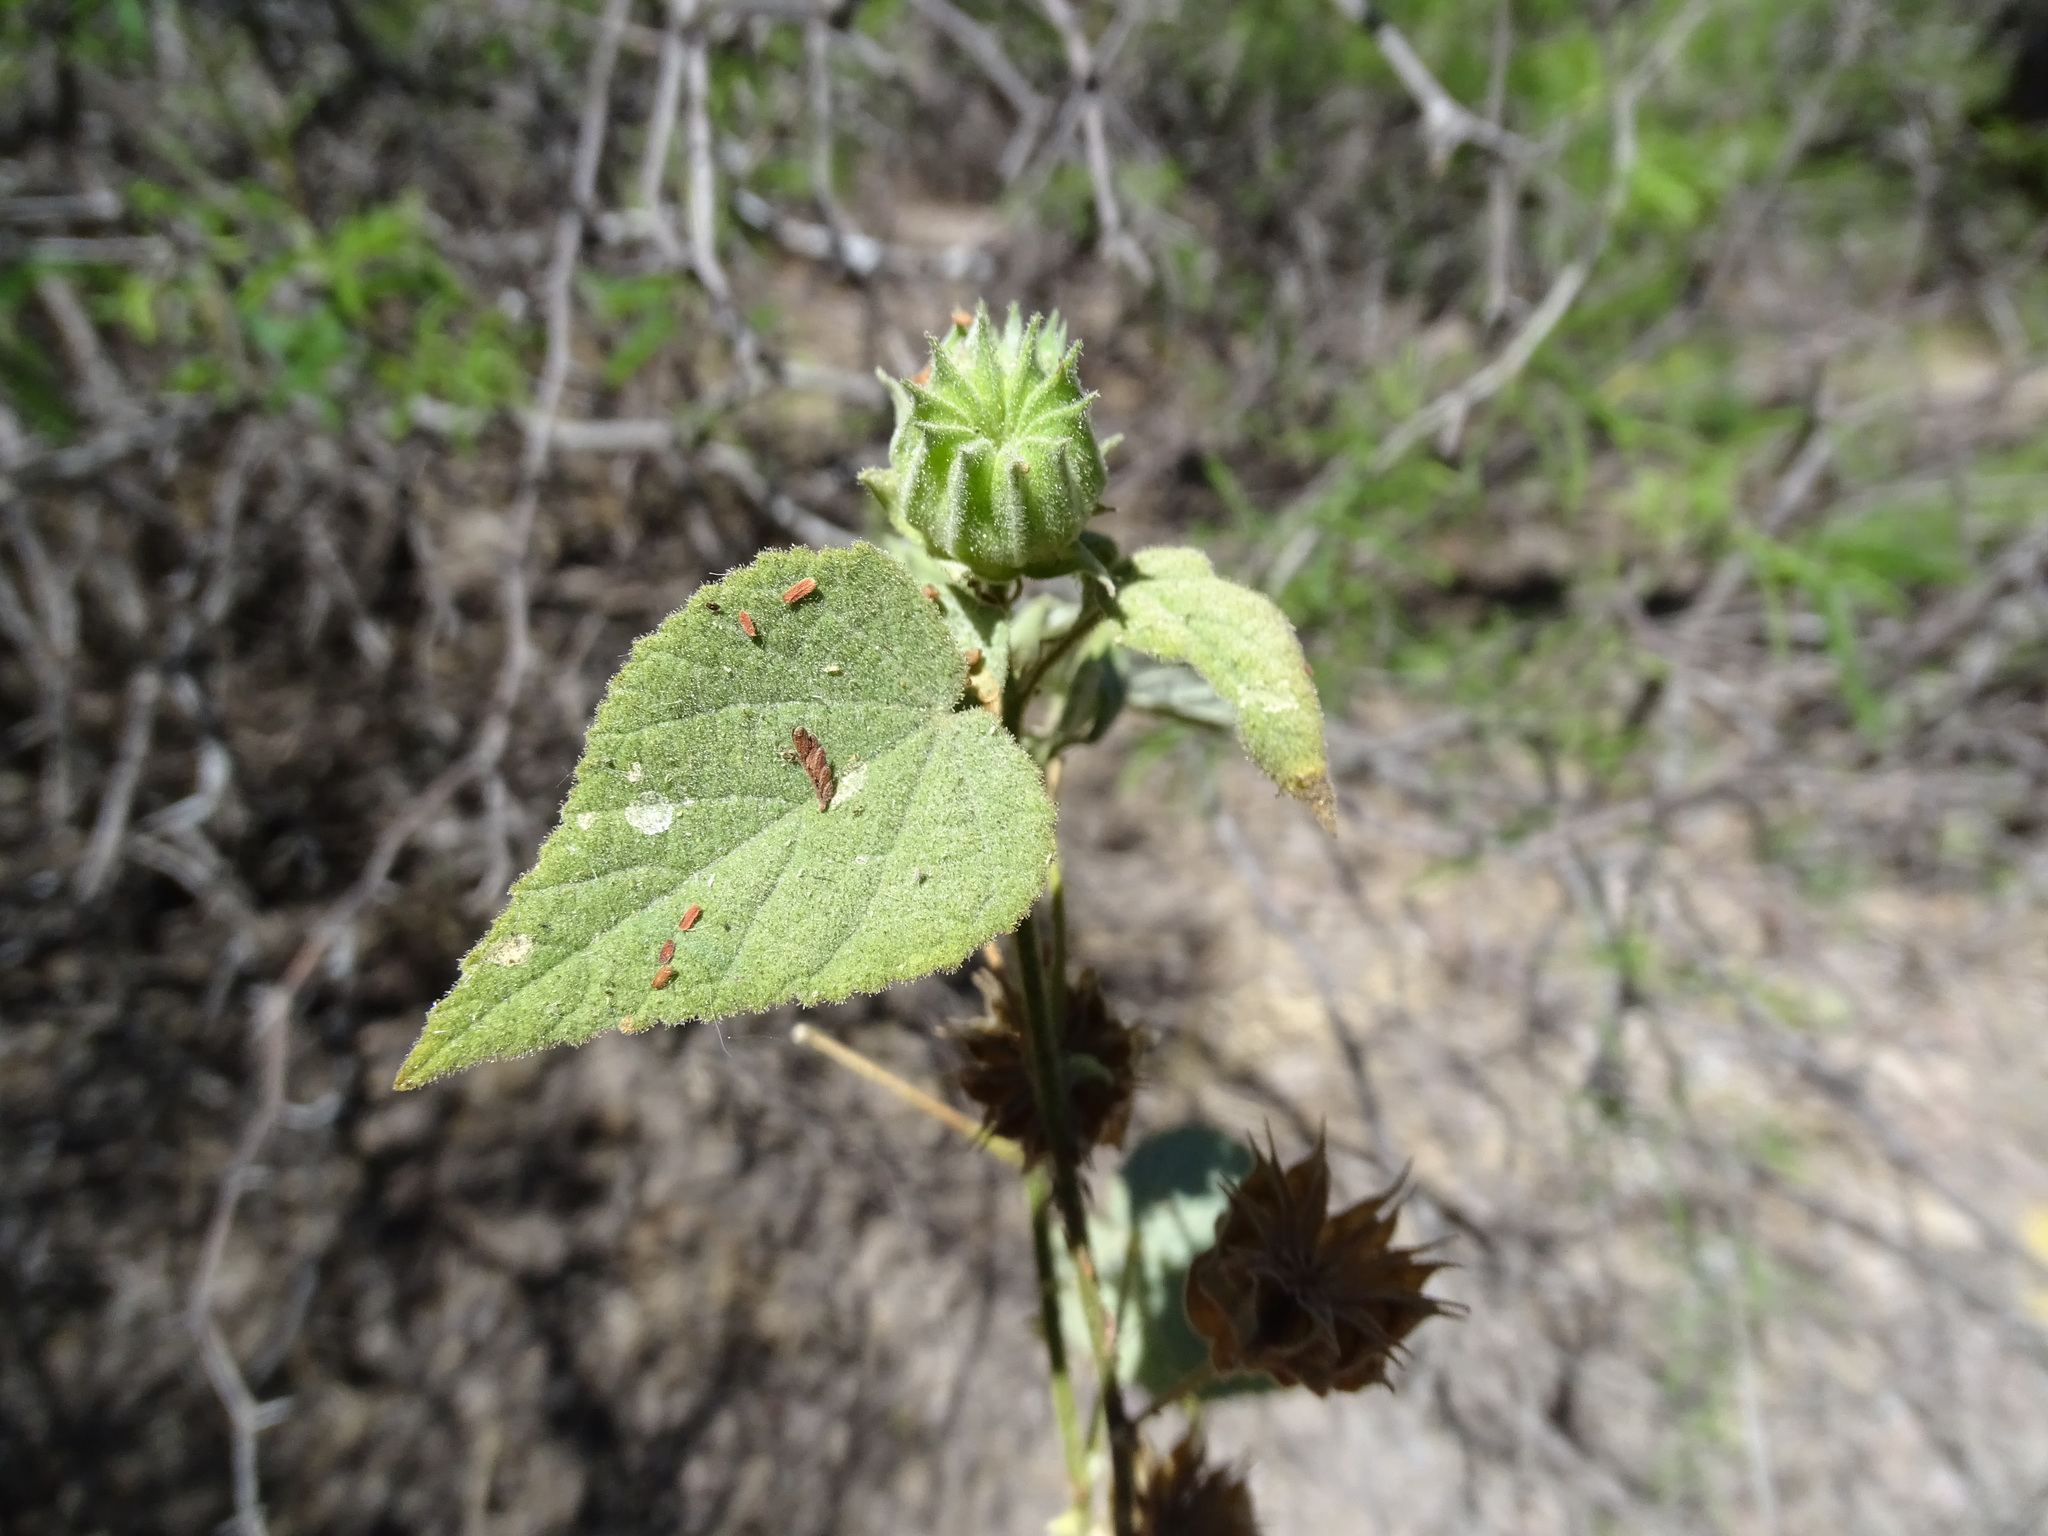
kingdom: Plantae
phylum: Tracheophyta
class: Magnoliopsida
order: Malvales
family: Malvaceae
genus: Abutilon
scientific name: Abutilon dugesii
